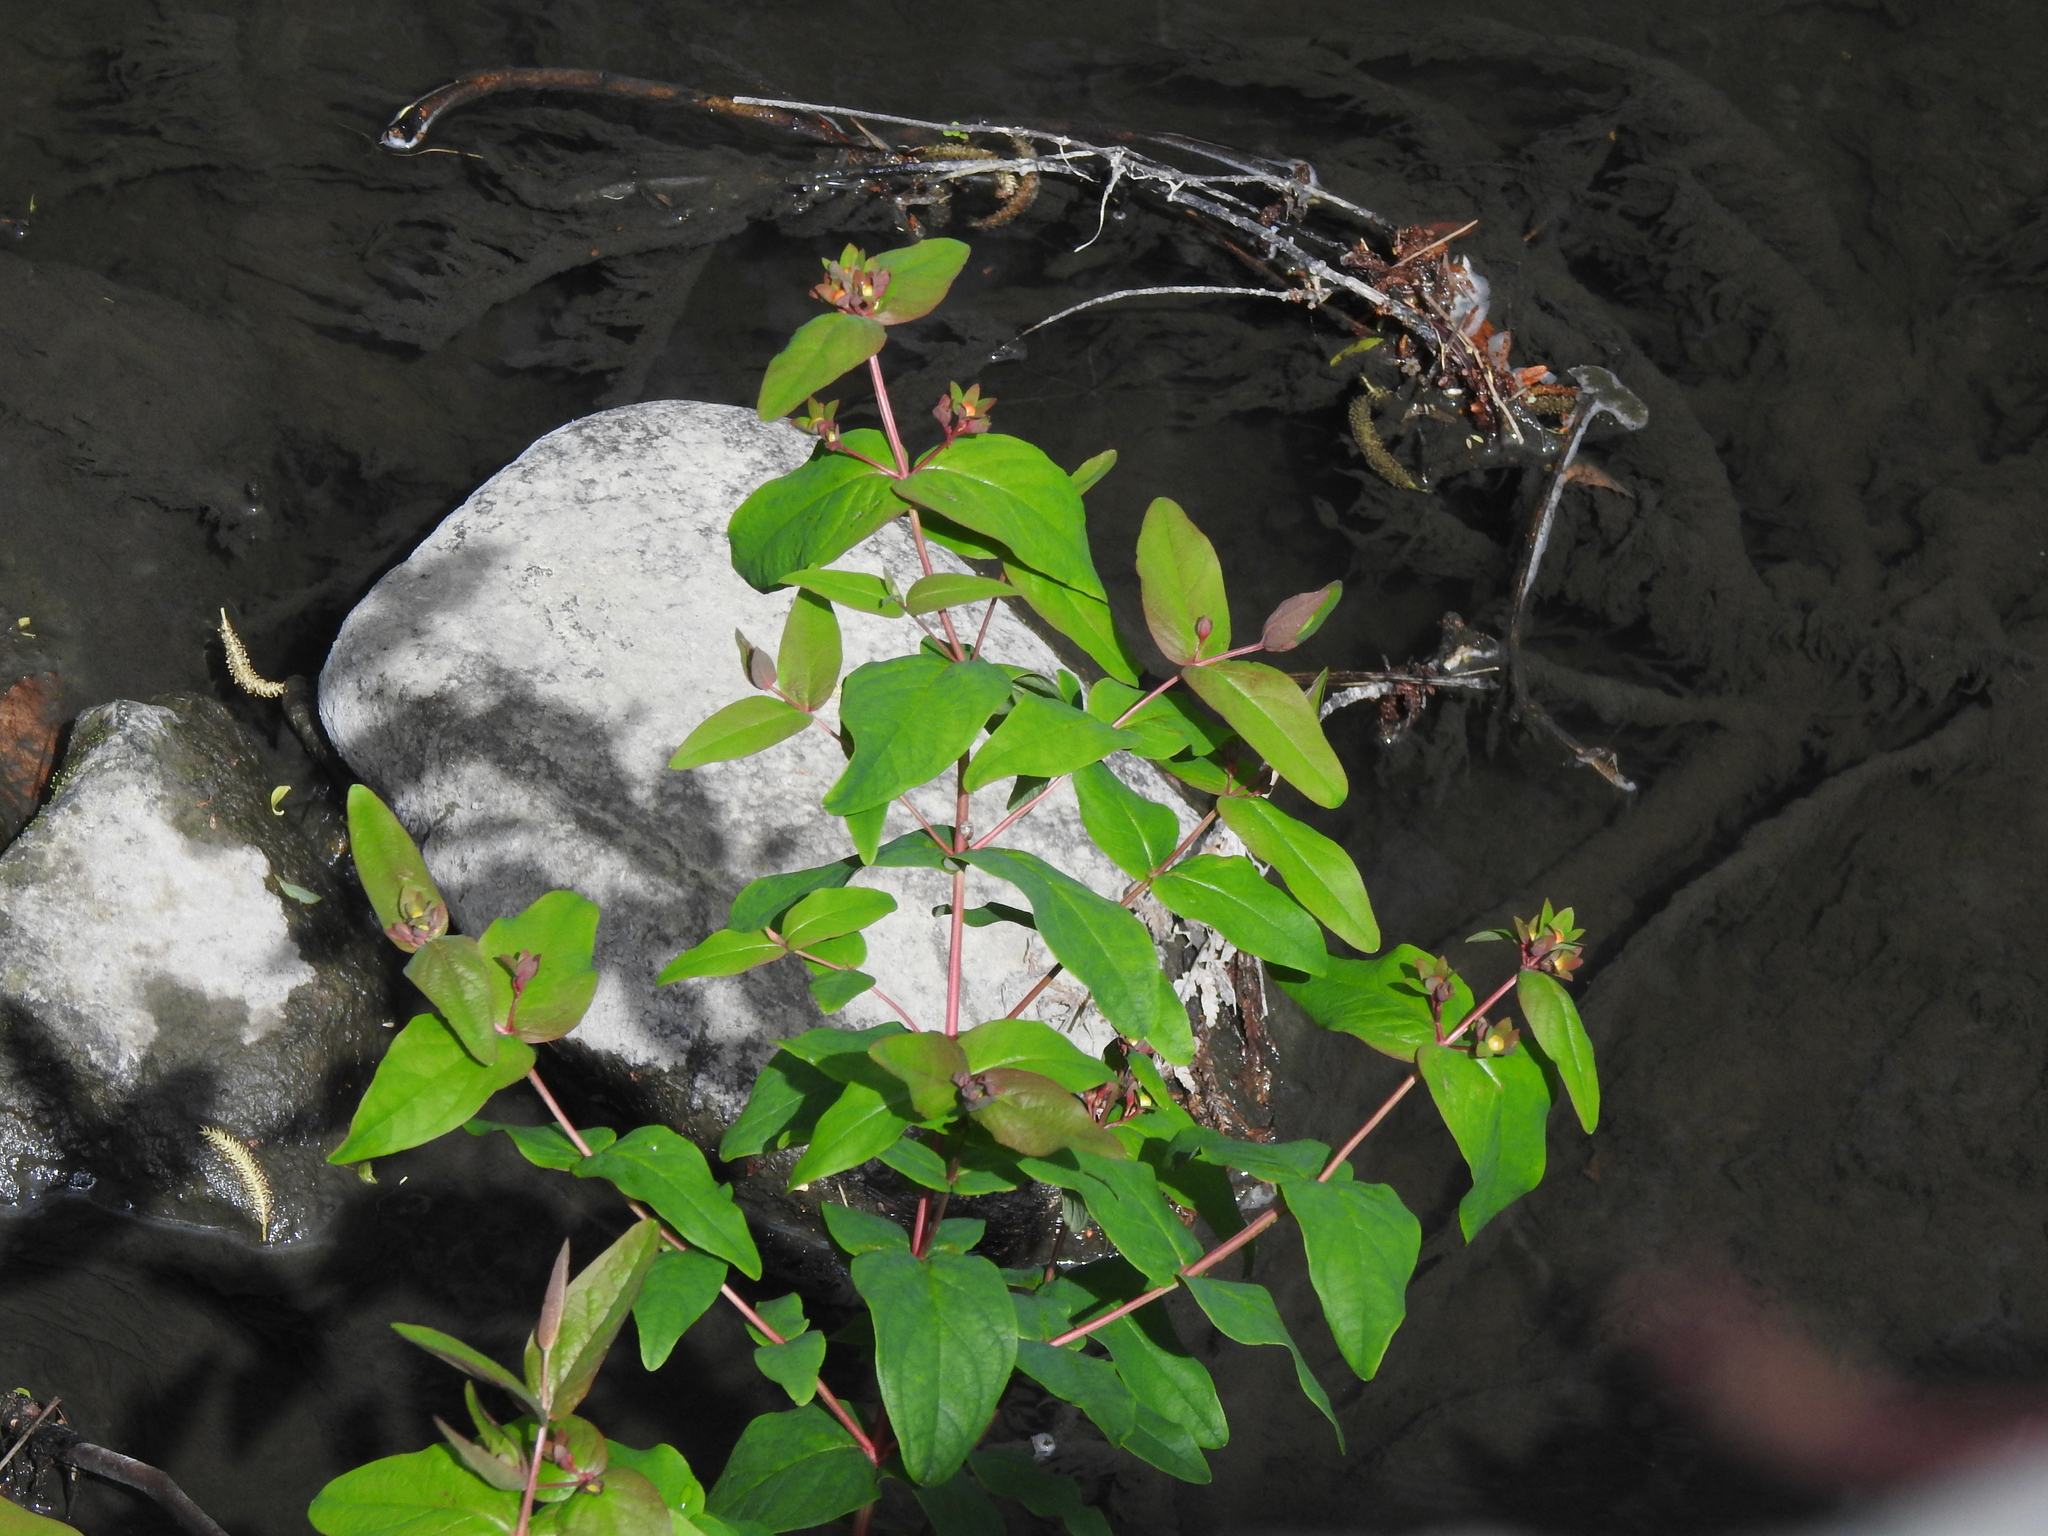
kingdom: Plantae
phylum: Tracheophyta
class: Magnoliopsida
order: Malpighiales
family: Hypericaceae
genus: Hypericum
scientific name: Hypericum androsaemum
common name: Sweet-amber
